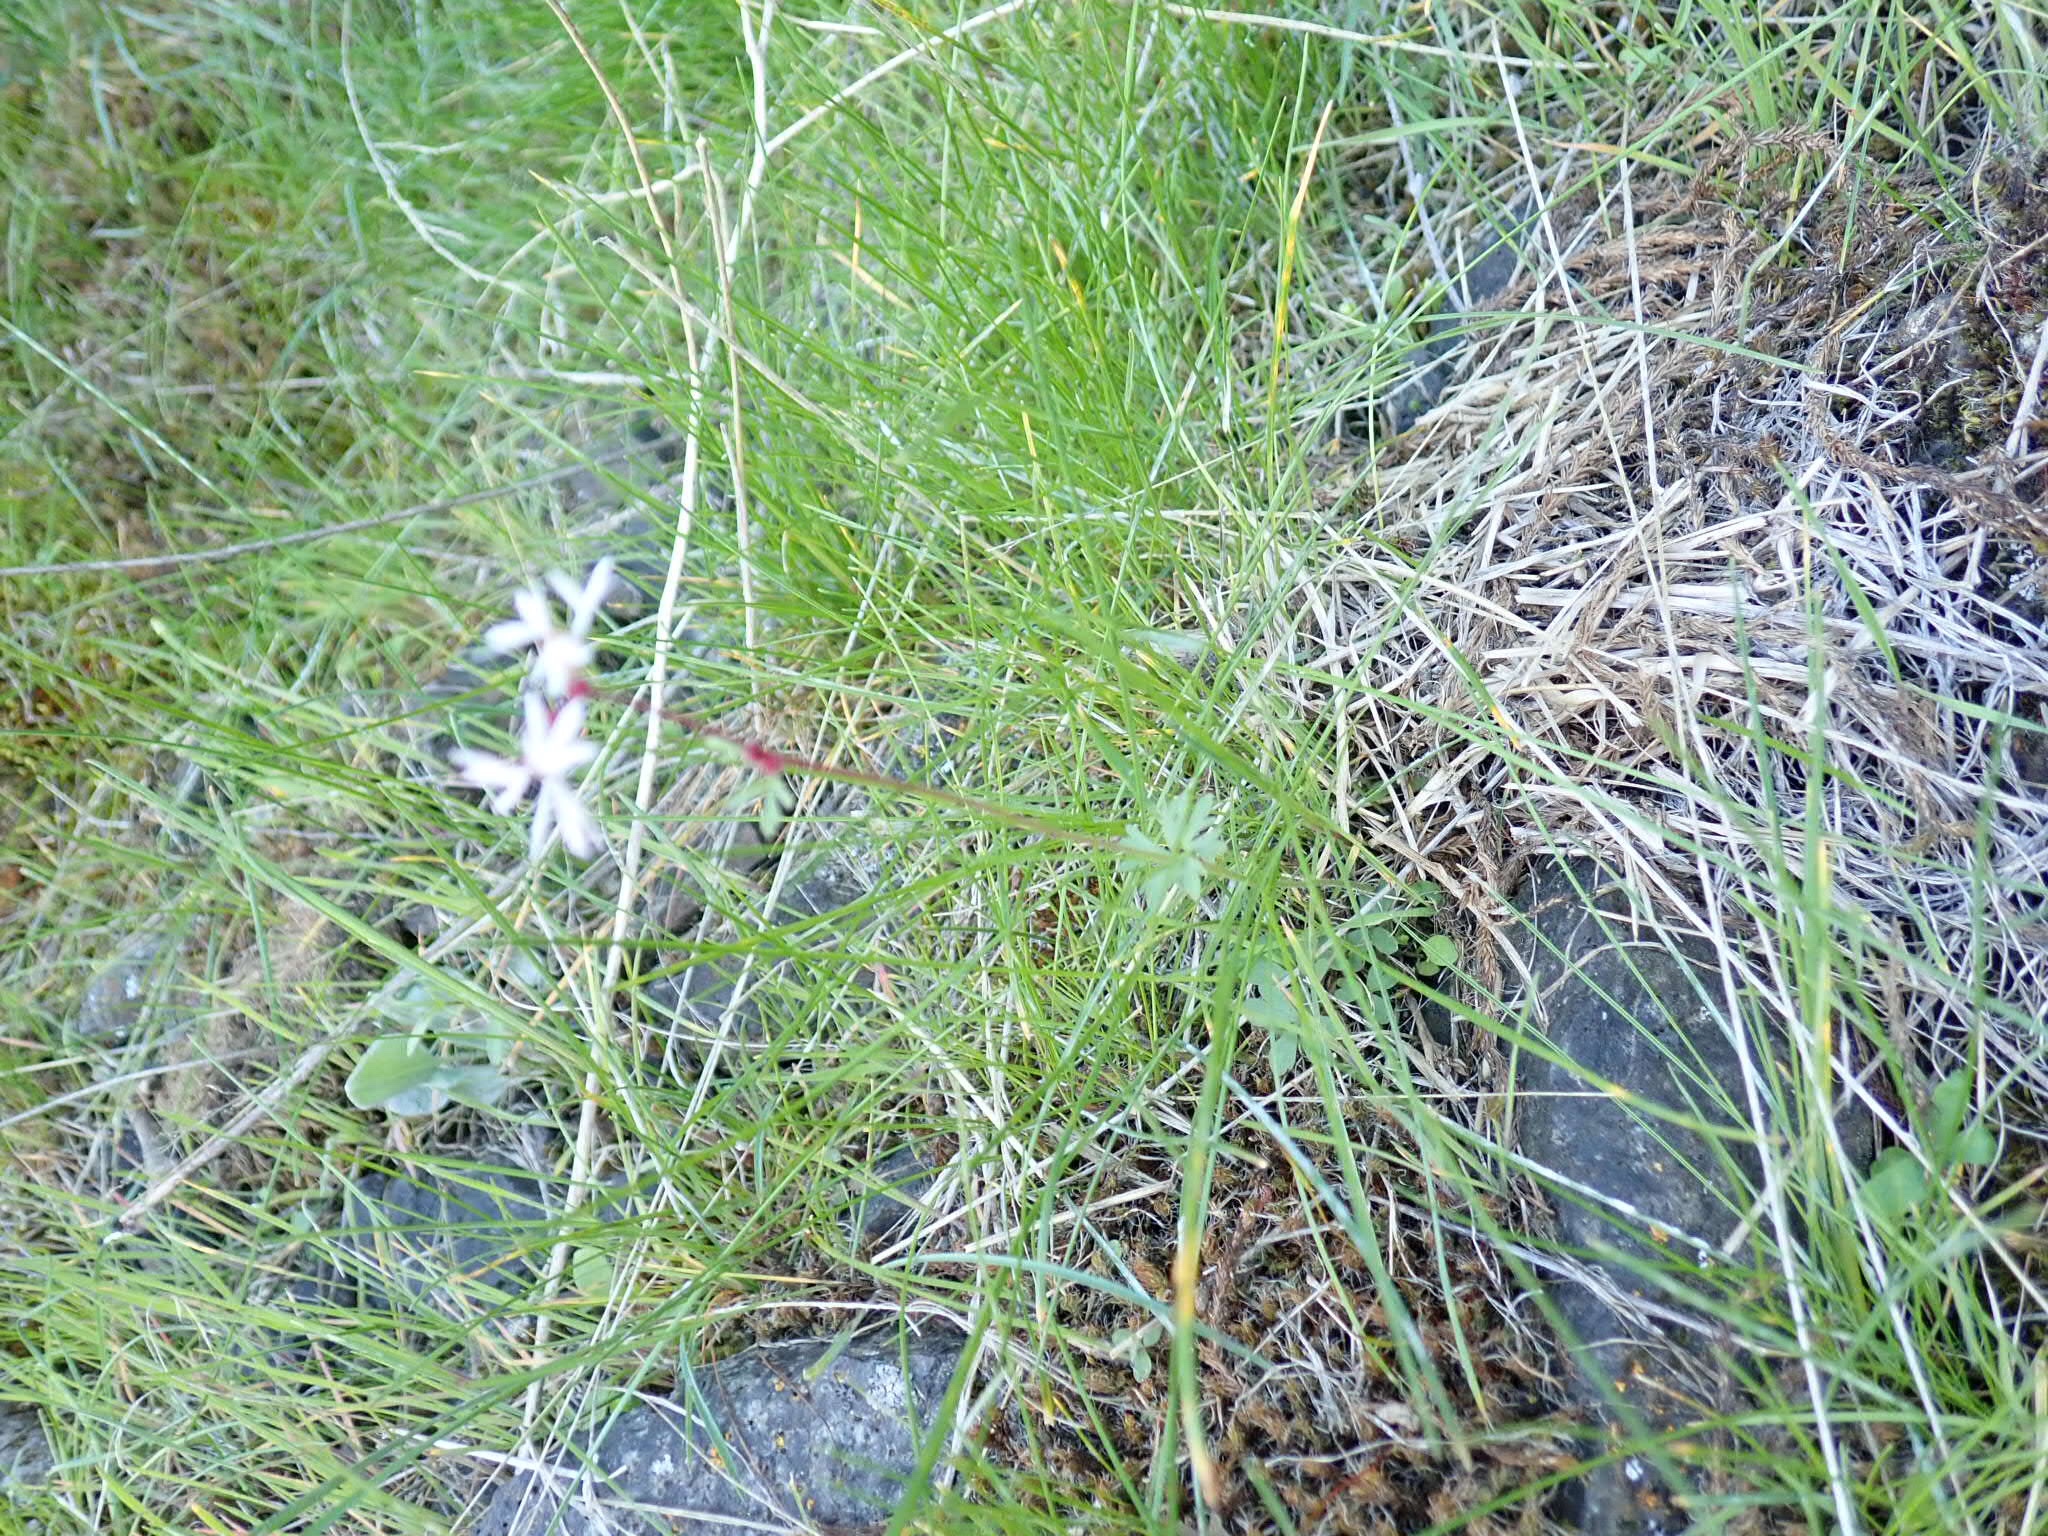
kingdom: Plantae
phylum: Tracheophyta
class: Magnoliopsida
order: Saxifragales
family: Saxifragaceae
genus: Lithophragma
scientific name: Lithophragma glabrum
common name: Bulbous prairie-star
